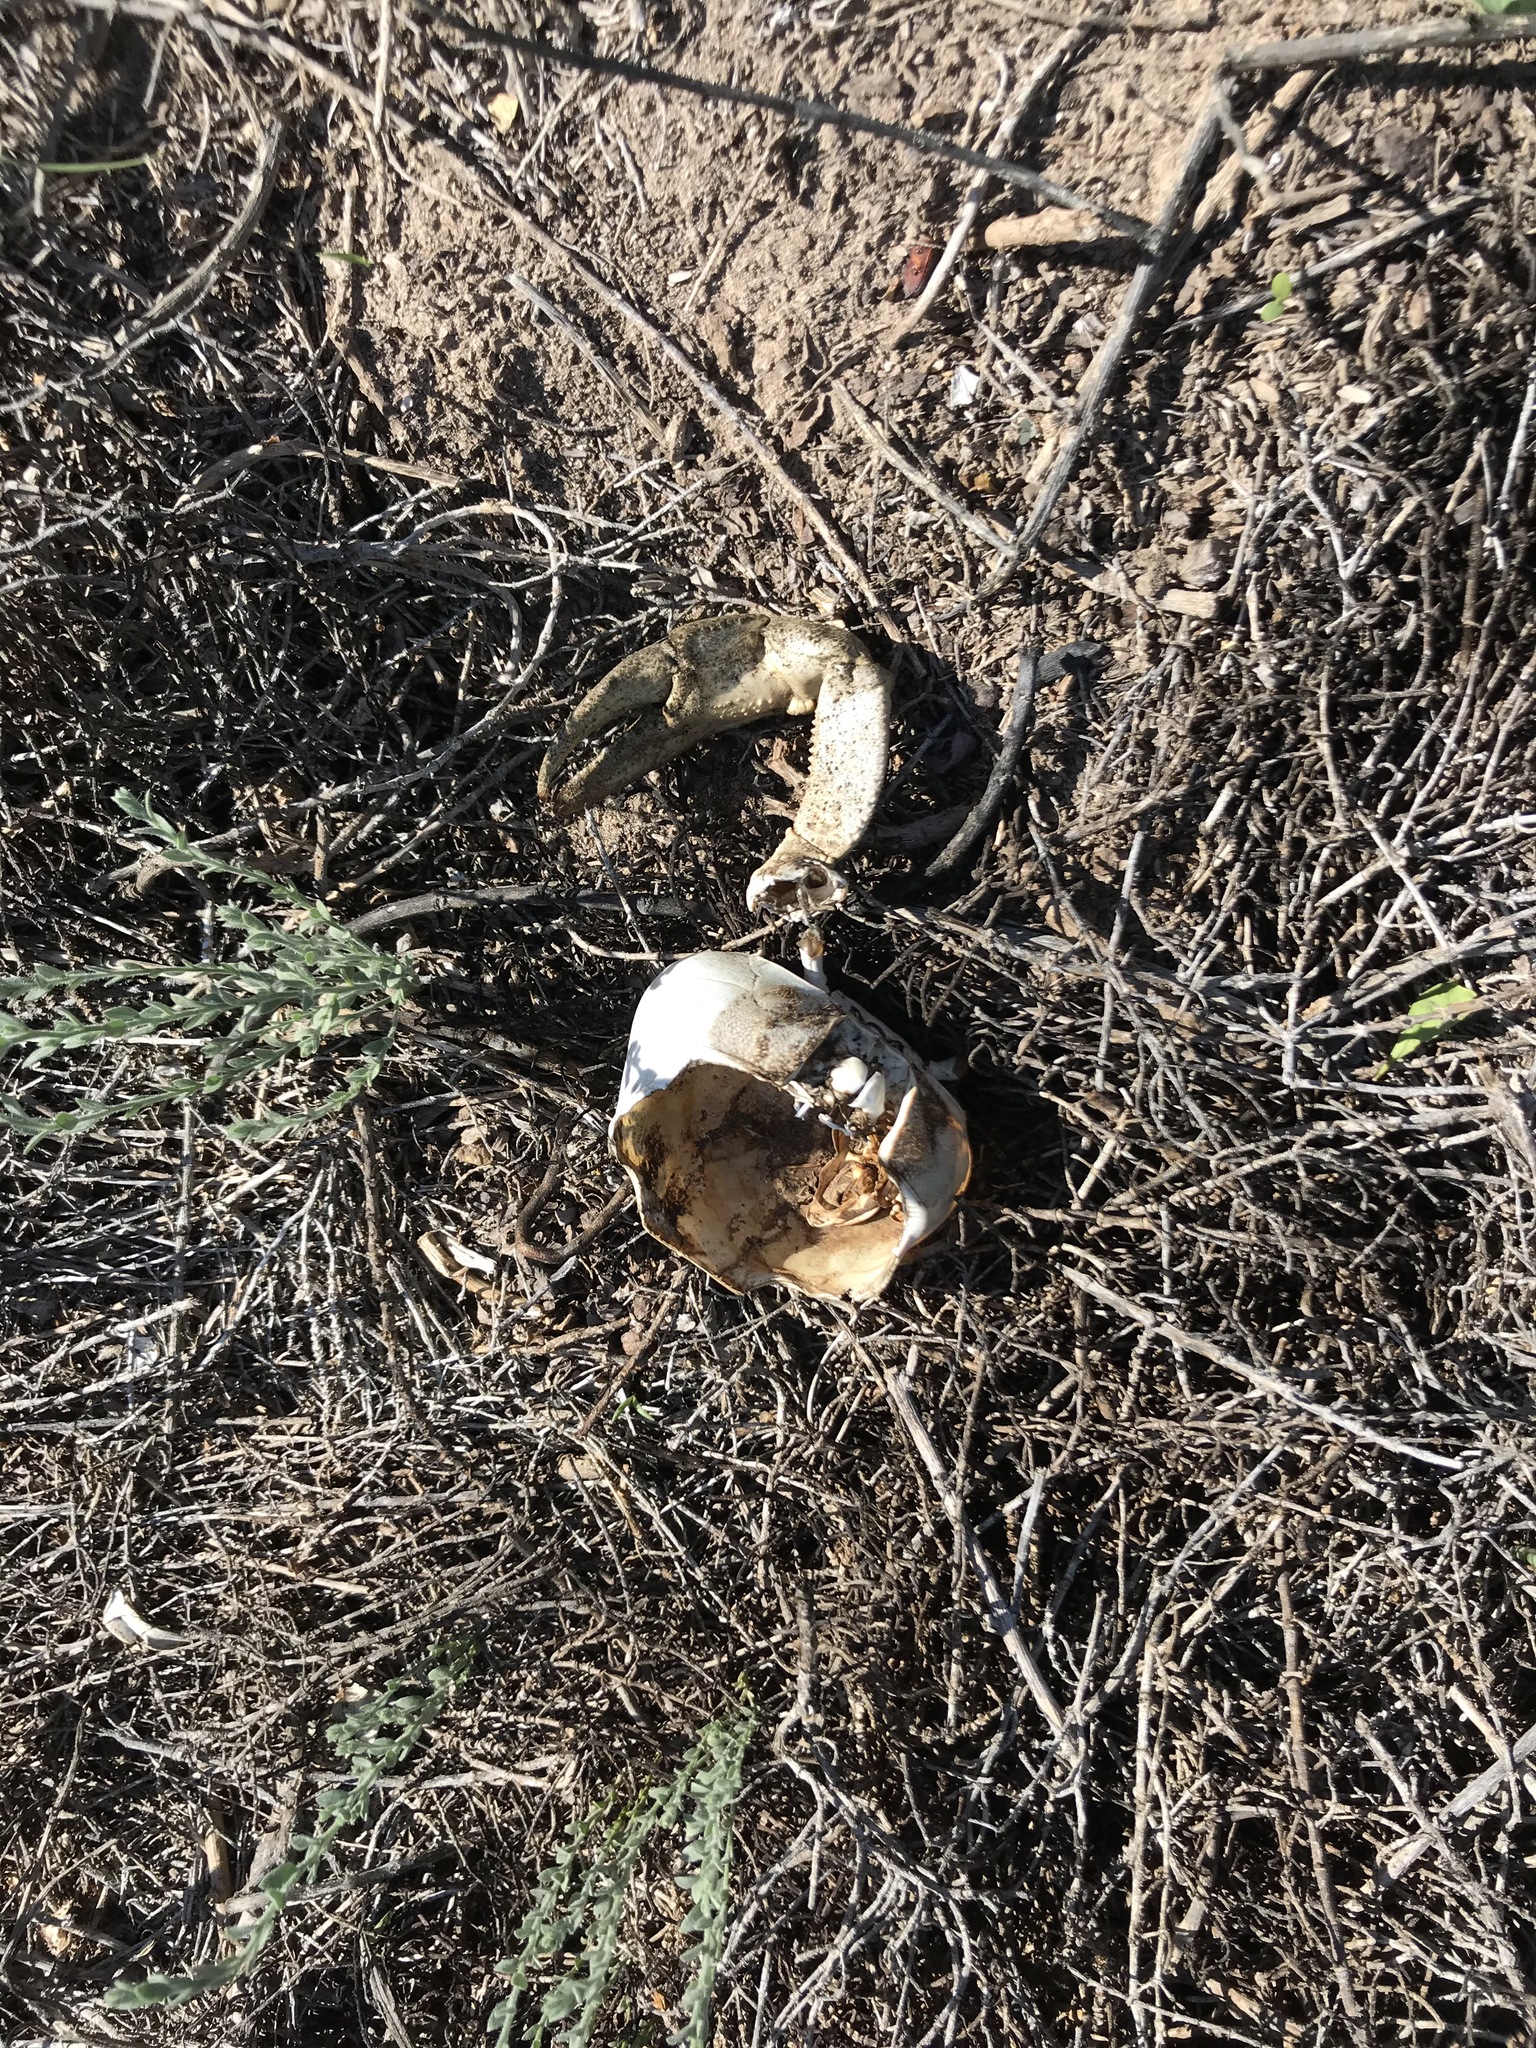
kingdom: Animalia
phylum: Arthropoda
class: Malacostraca
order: Decapoda
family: Gecarcinidae
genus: Cardisoma
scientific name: Cardisoma crassum
